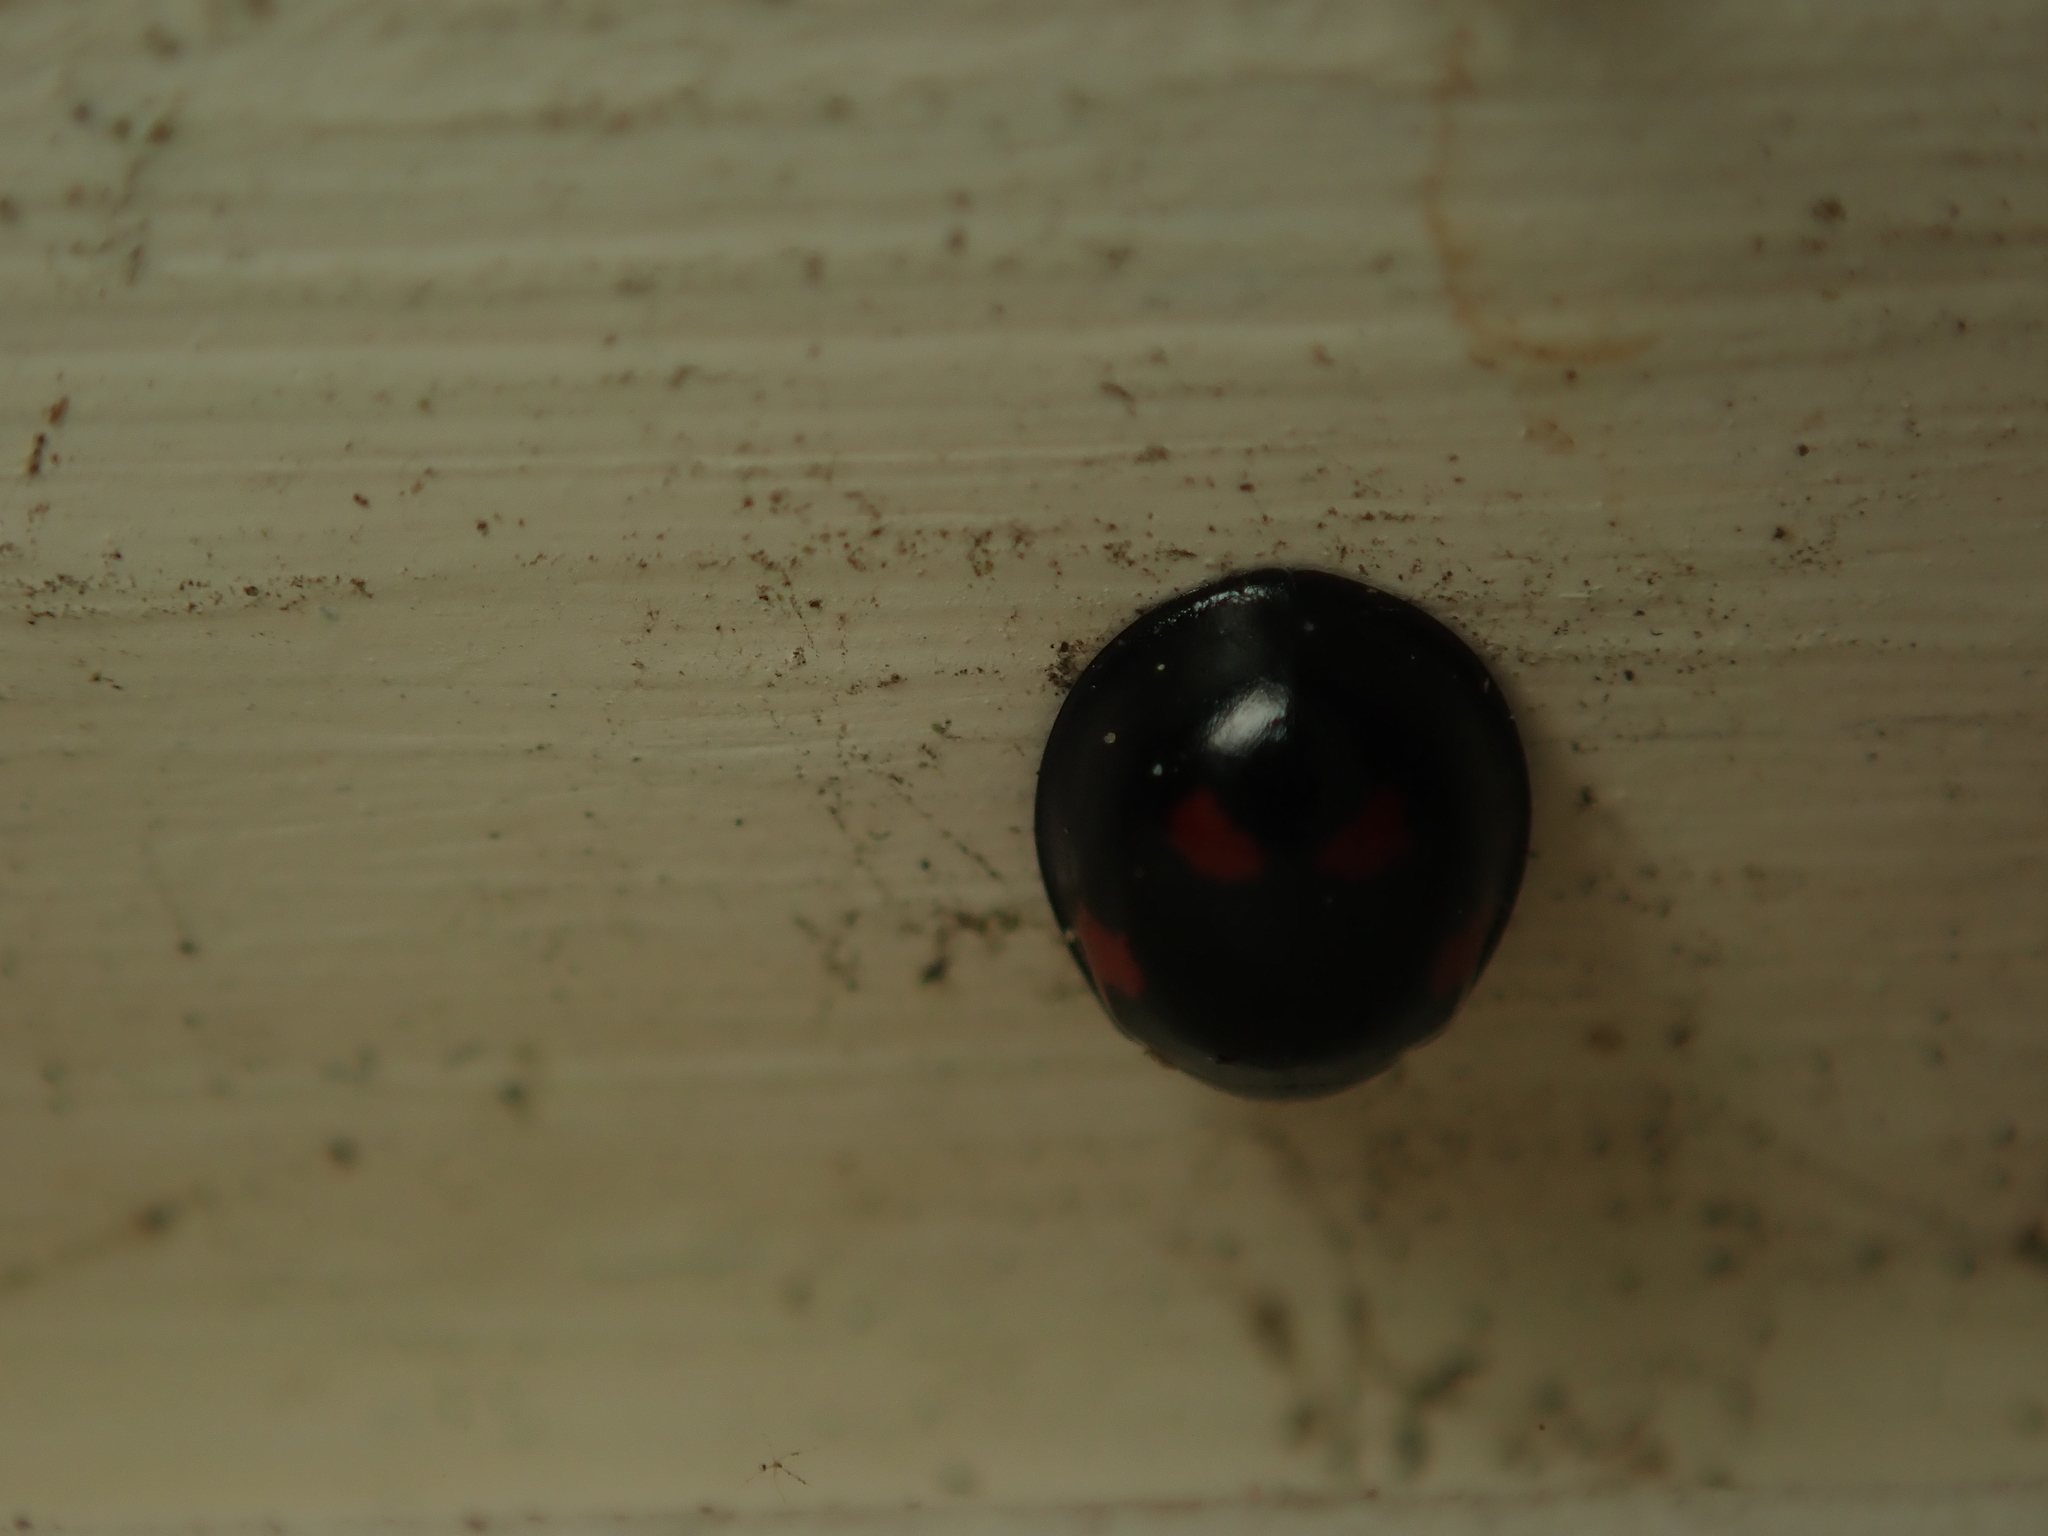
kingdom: Animalia
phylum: Arthropoda
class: Insecta
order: Coleoptera
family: Coccinellidae
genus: Brumus
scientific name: Brumus quadripustulatus
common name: Ladybird beetle
